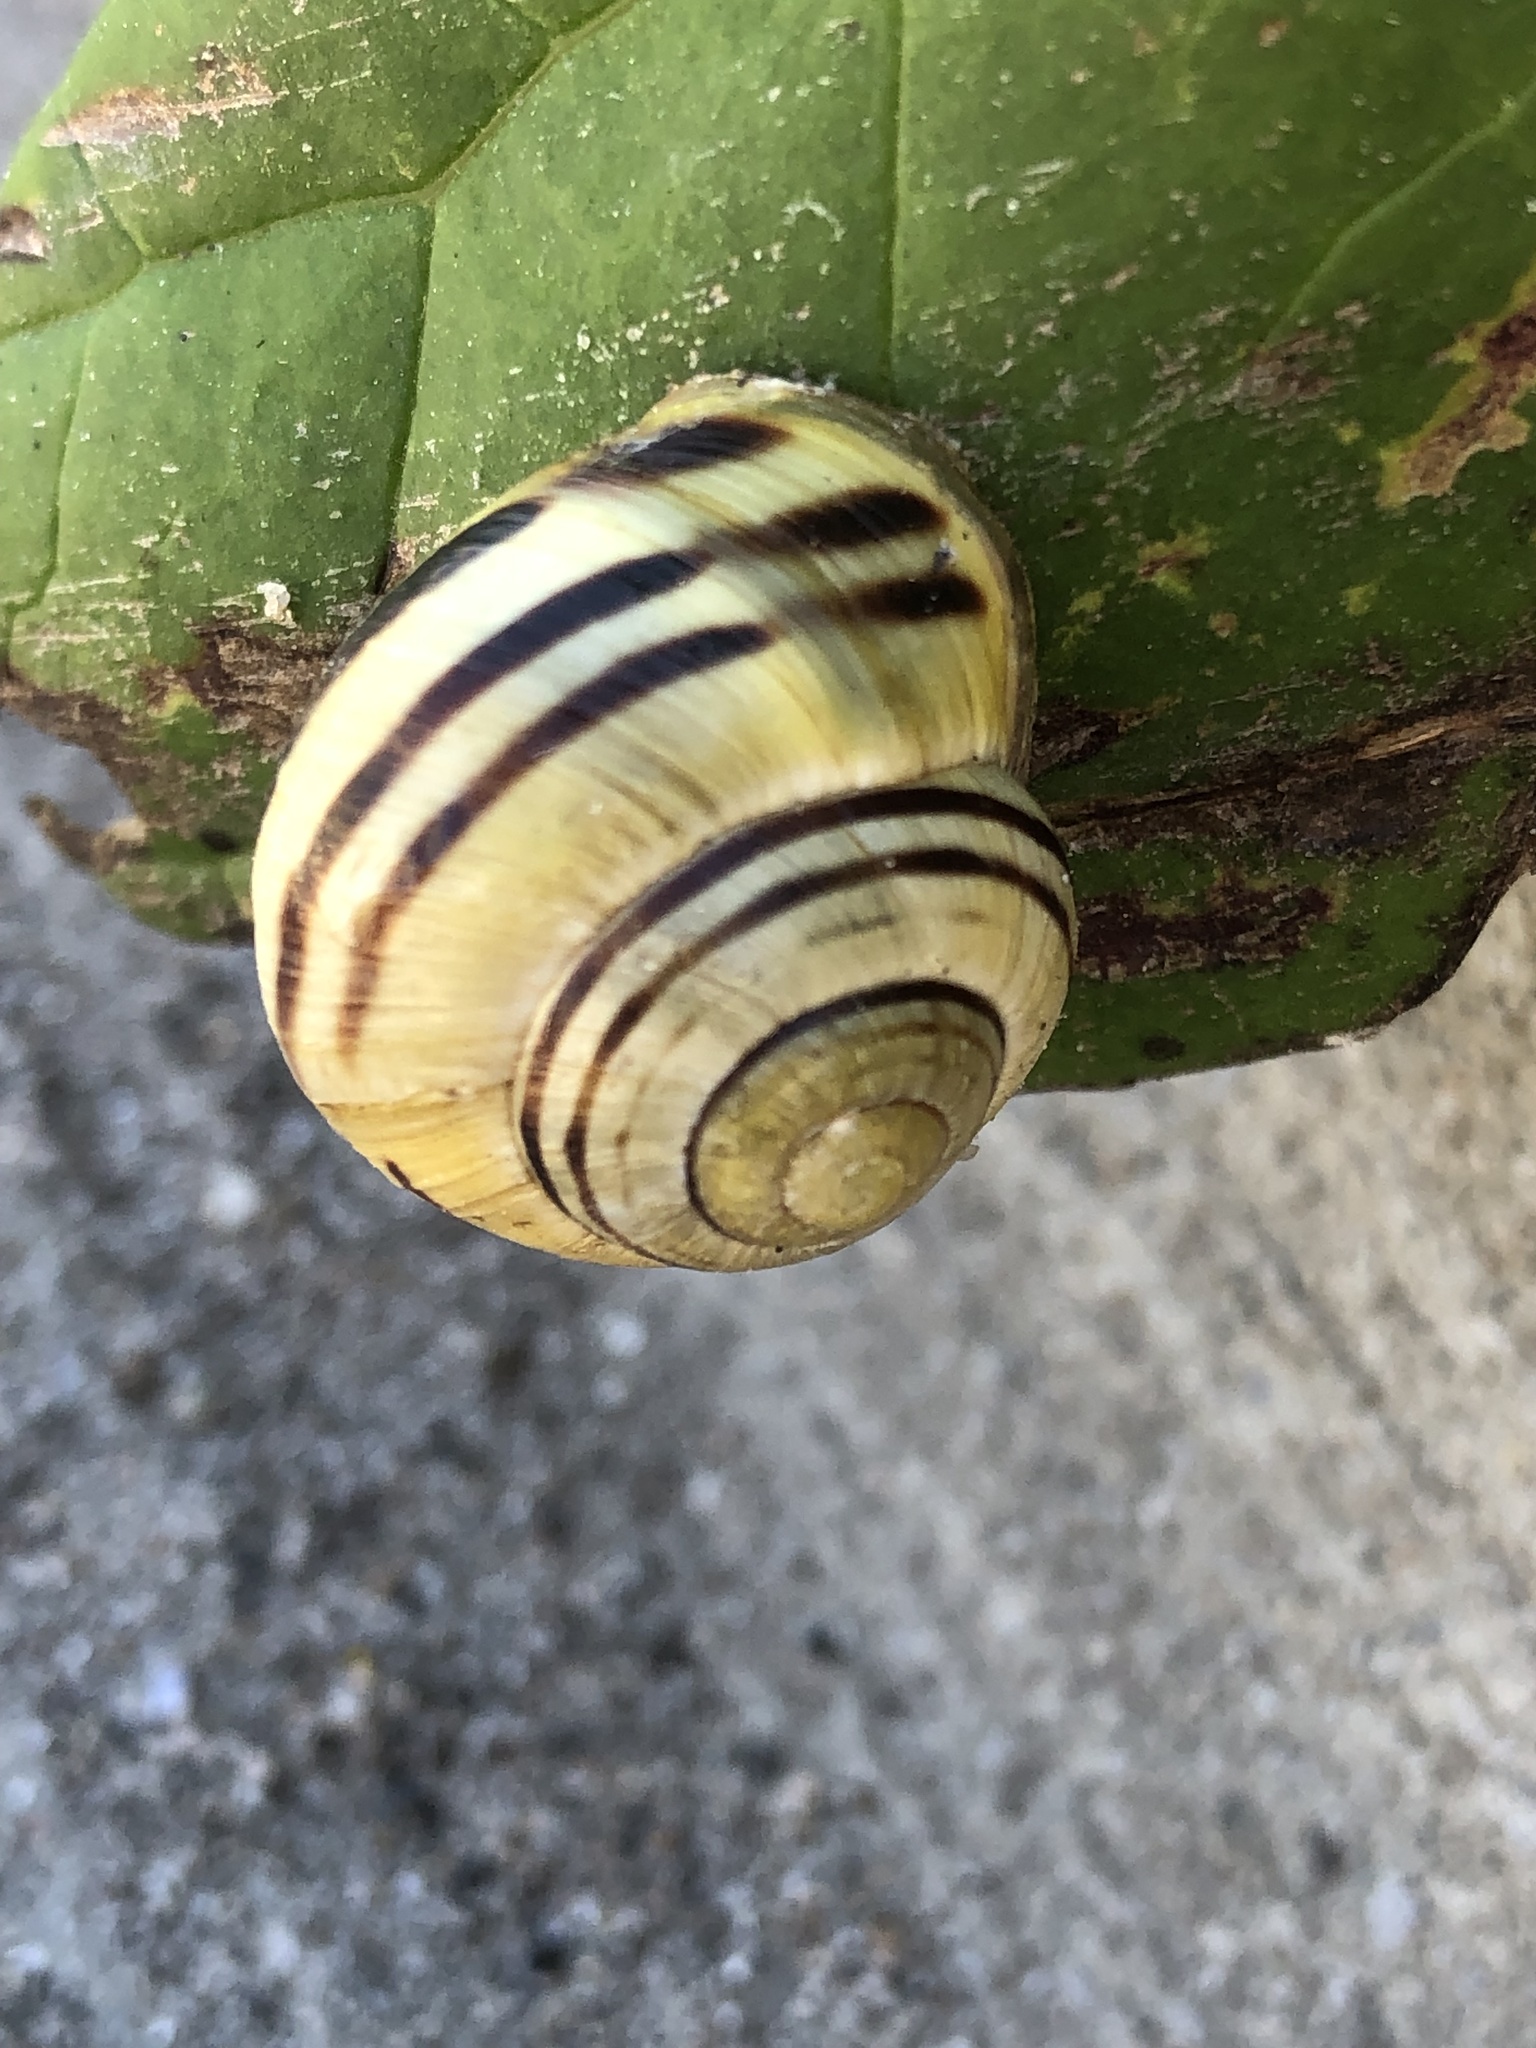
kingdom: Animalia
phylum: Mollusca
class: Gastropoda
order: Stylommatophora
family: Helicidae
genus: Cepaea
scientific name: Cepaea nemoralis
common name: Grovesnail
